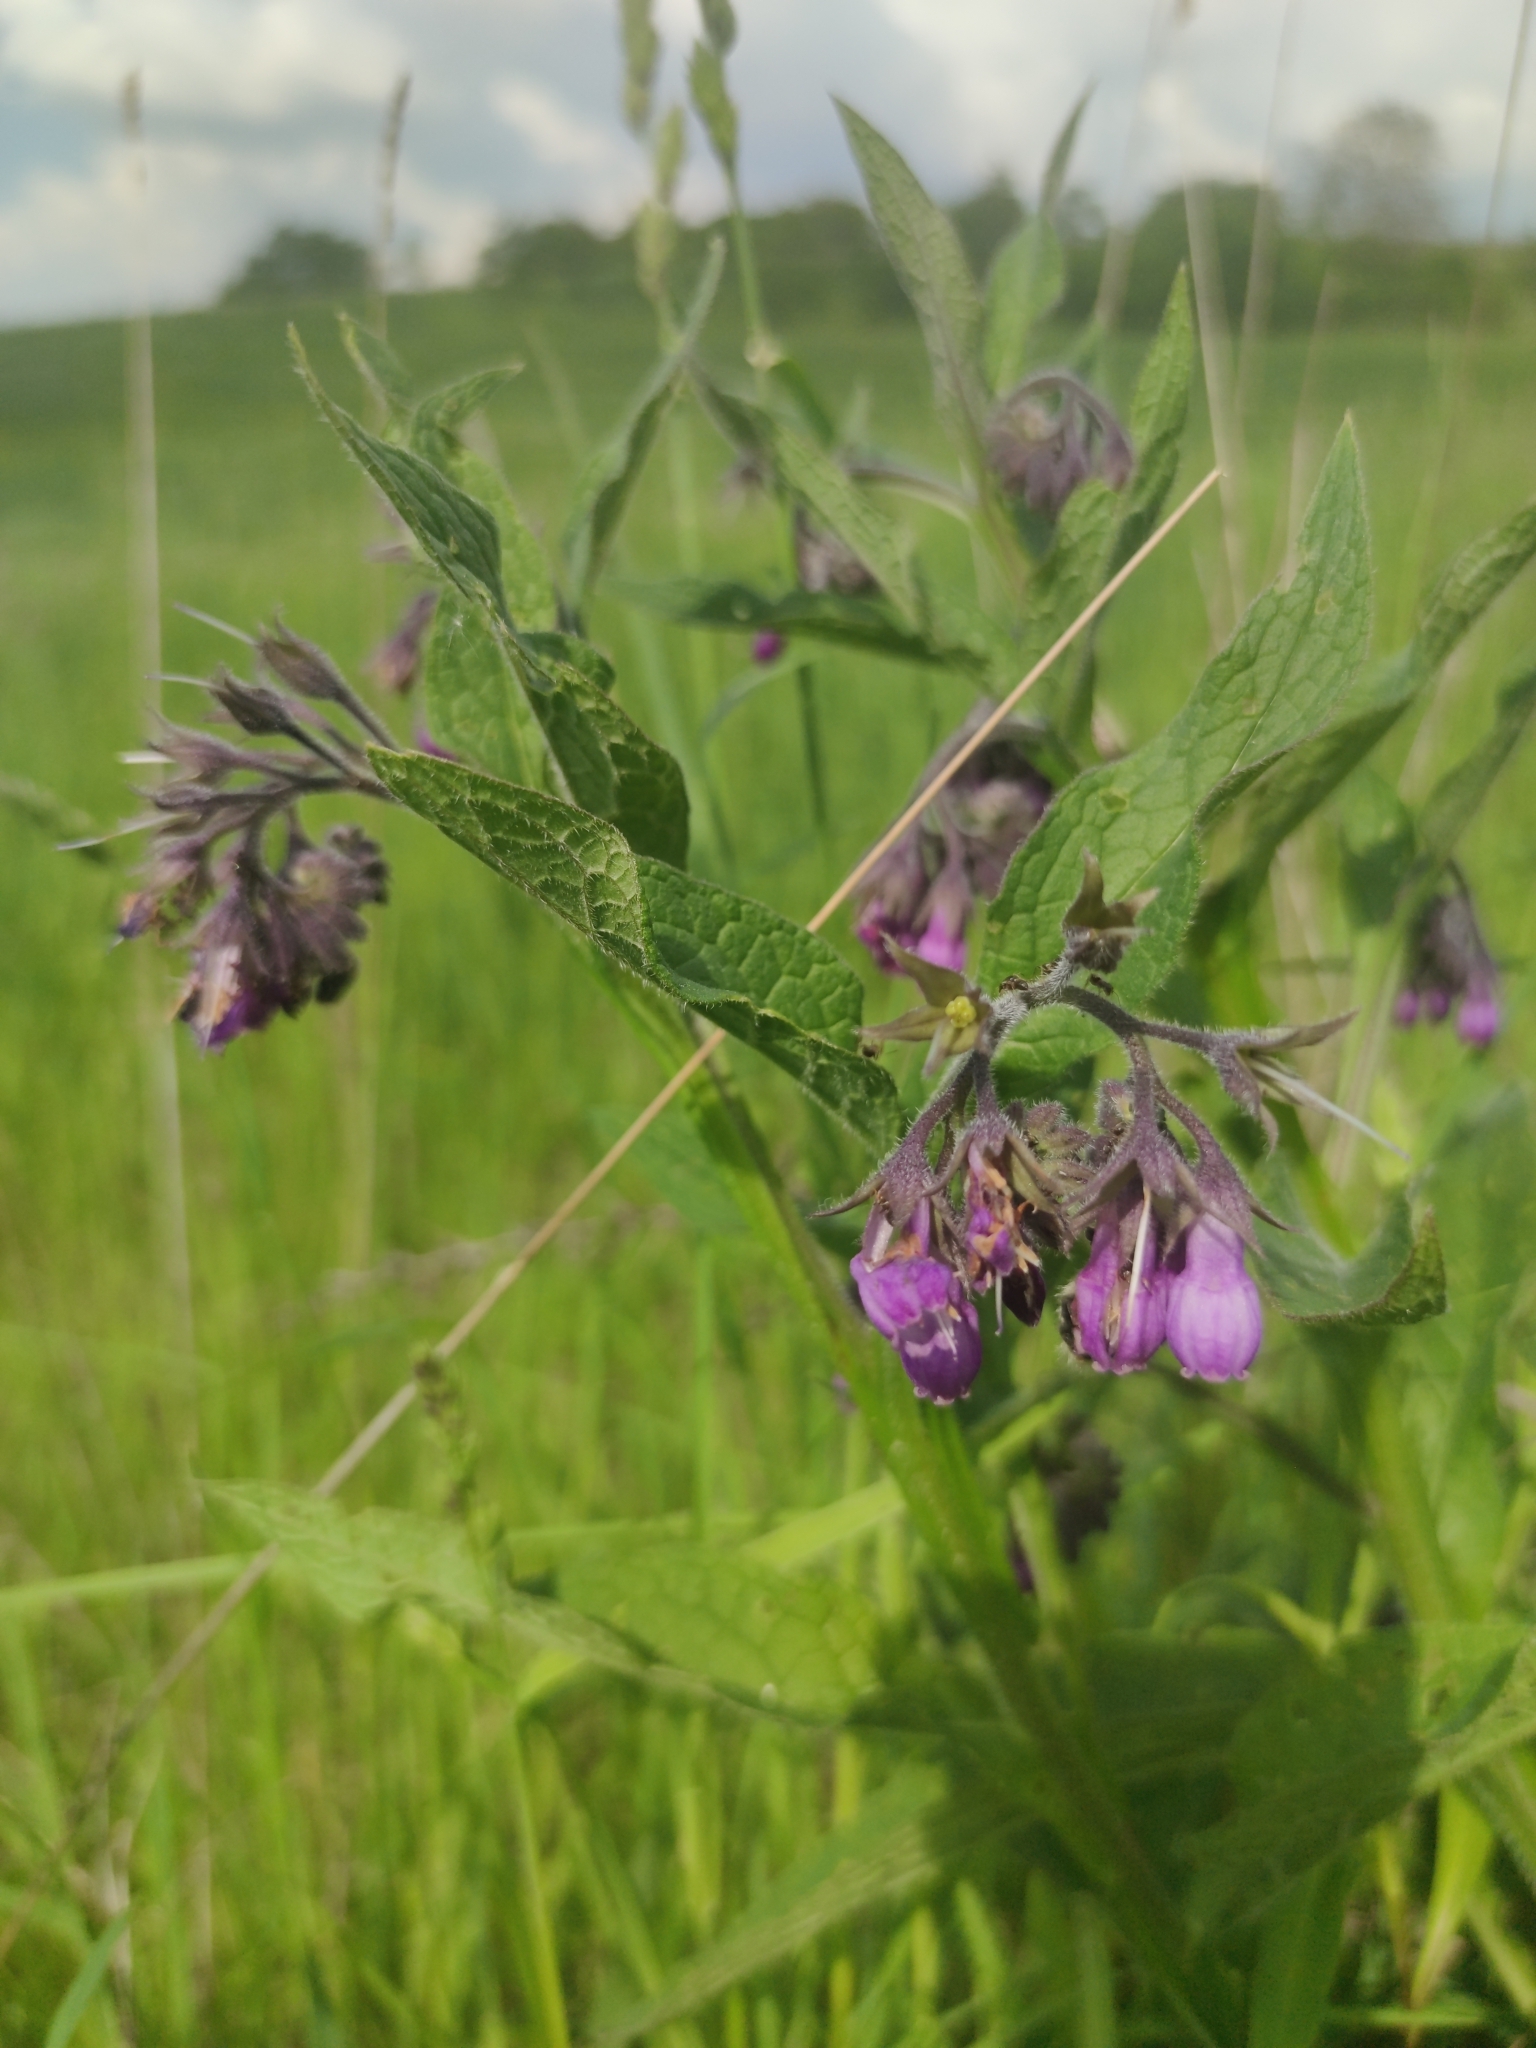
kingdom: Plantae
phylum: Tracheophyta
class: Magnoliopsida
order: Boraginales
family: Boraginaceae
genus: Symphytum
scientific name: Symphytum officinale
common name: Common comfrey
